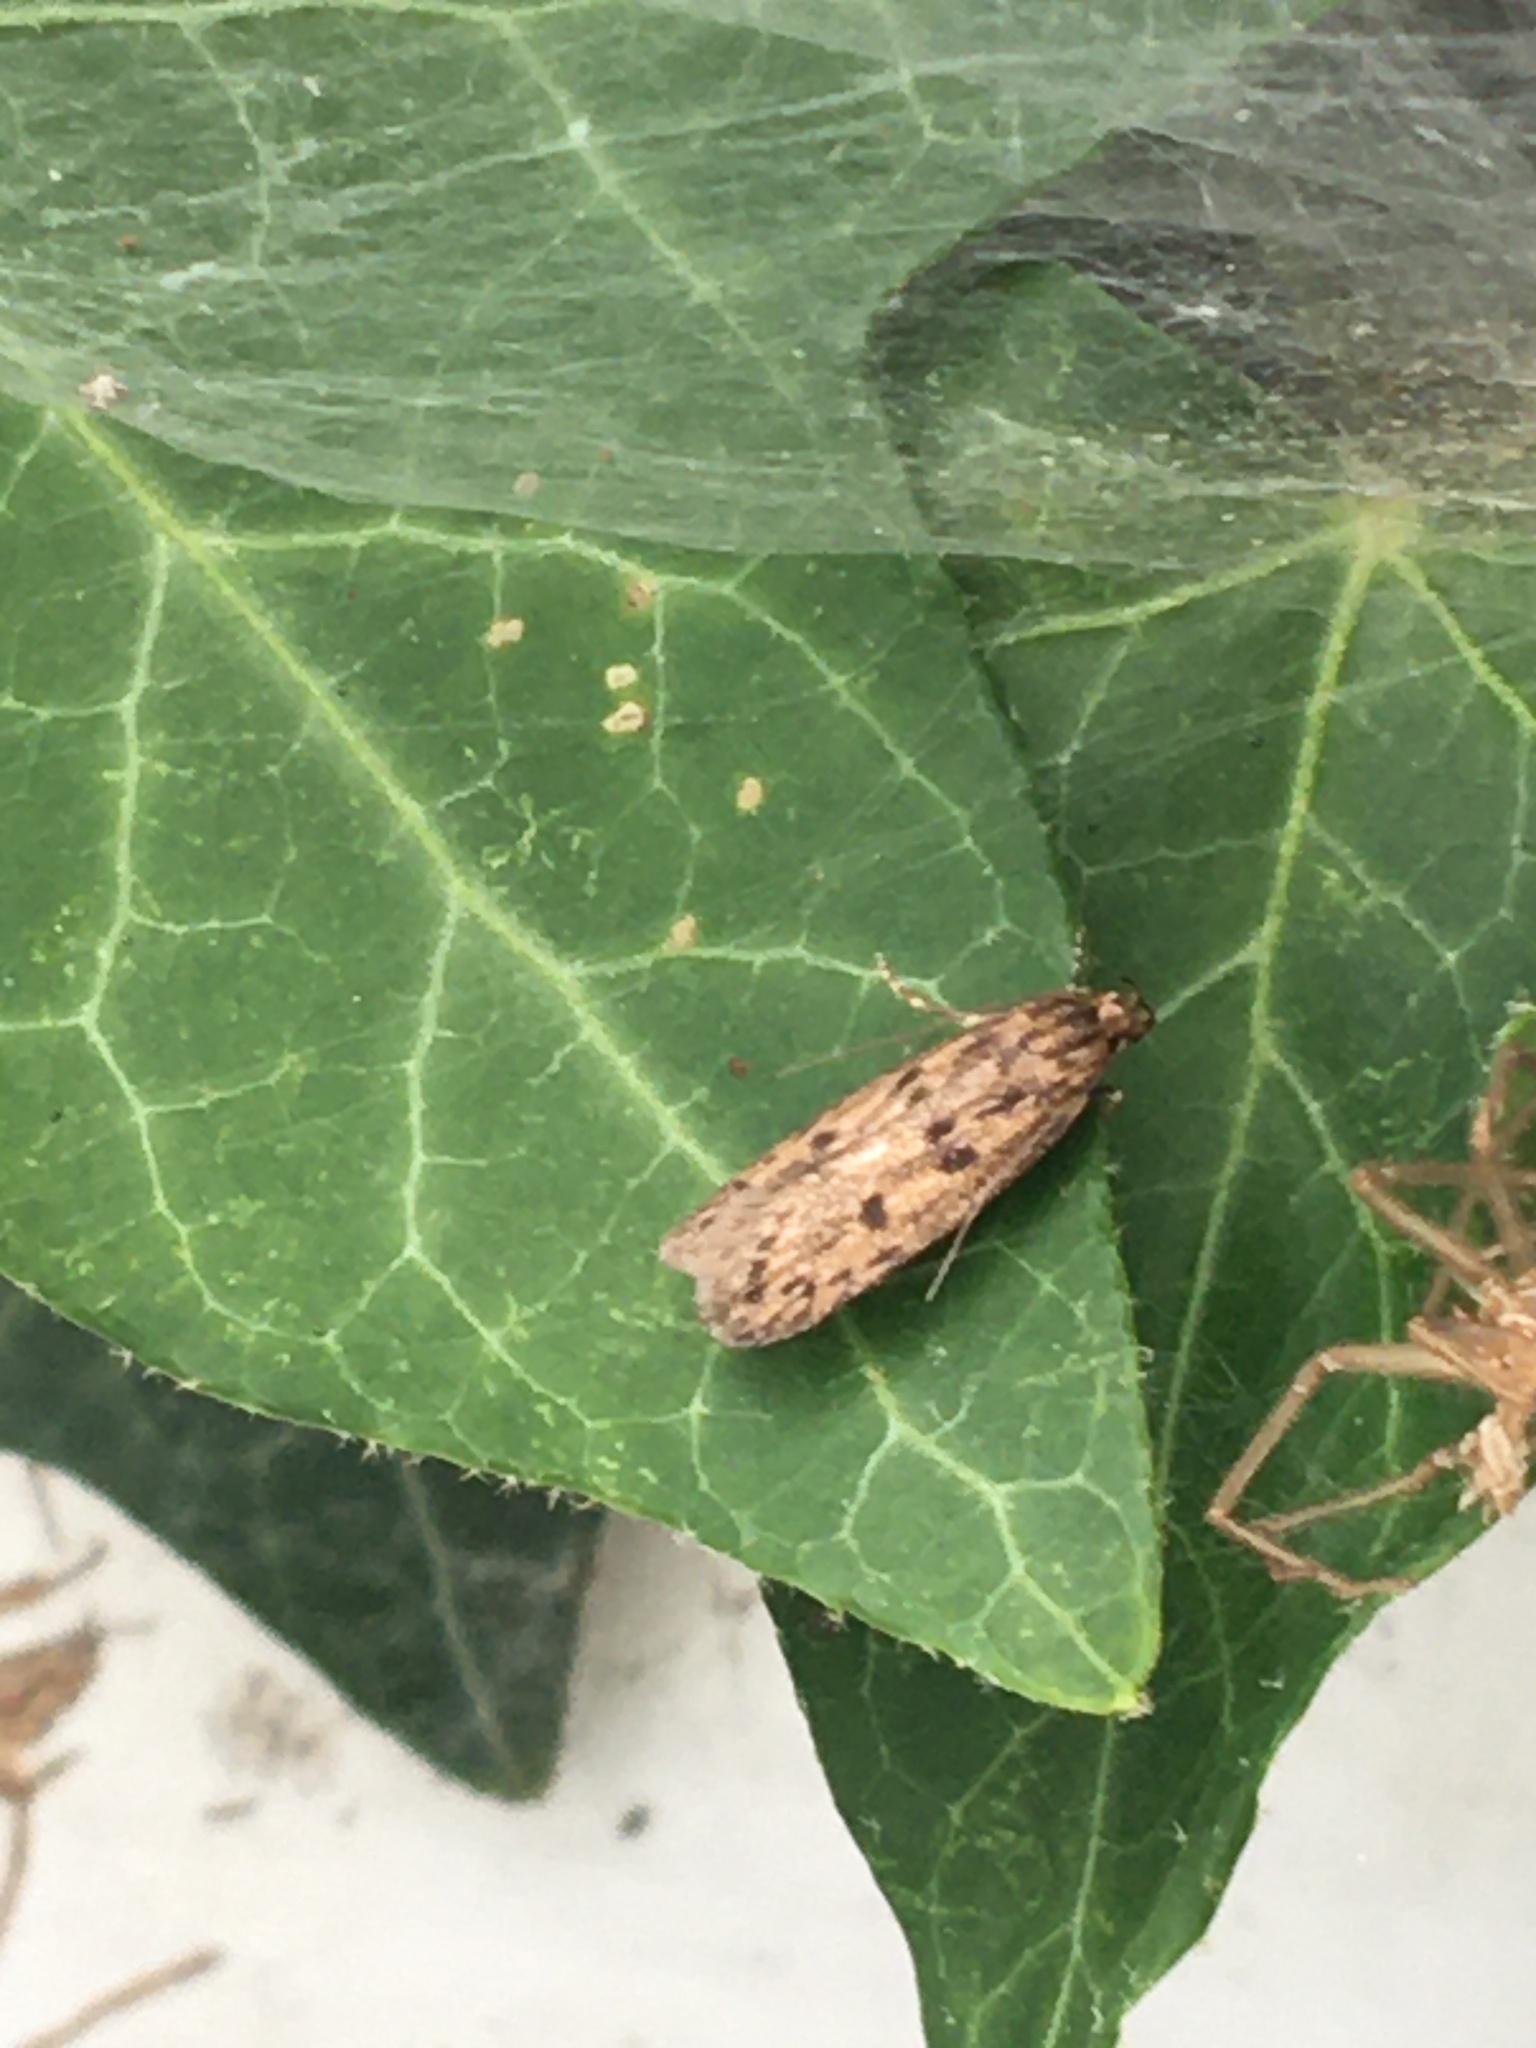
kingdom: Animalia
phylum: Arthropoda
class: Insecta
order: Lepidoptera
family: Oecophoridae
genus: Hofmannophila
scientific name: Hofmannophila pseudospretella
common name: Brown house moth
